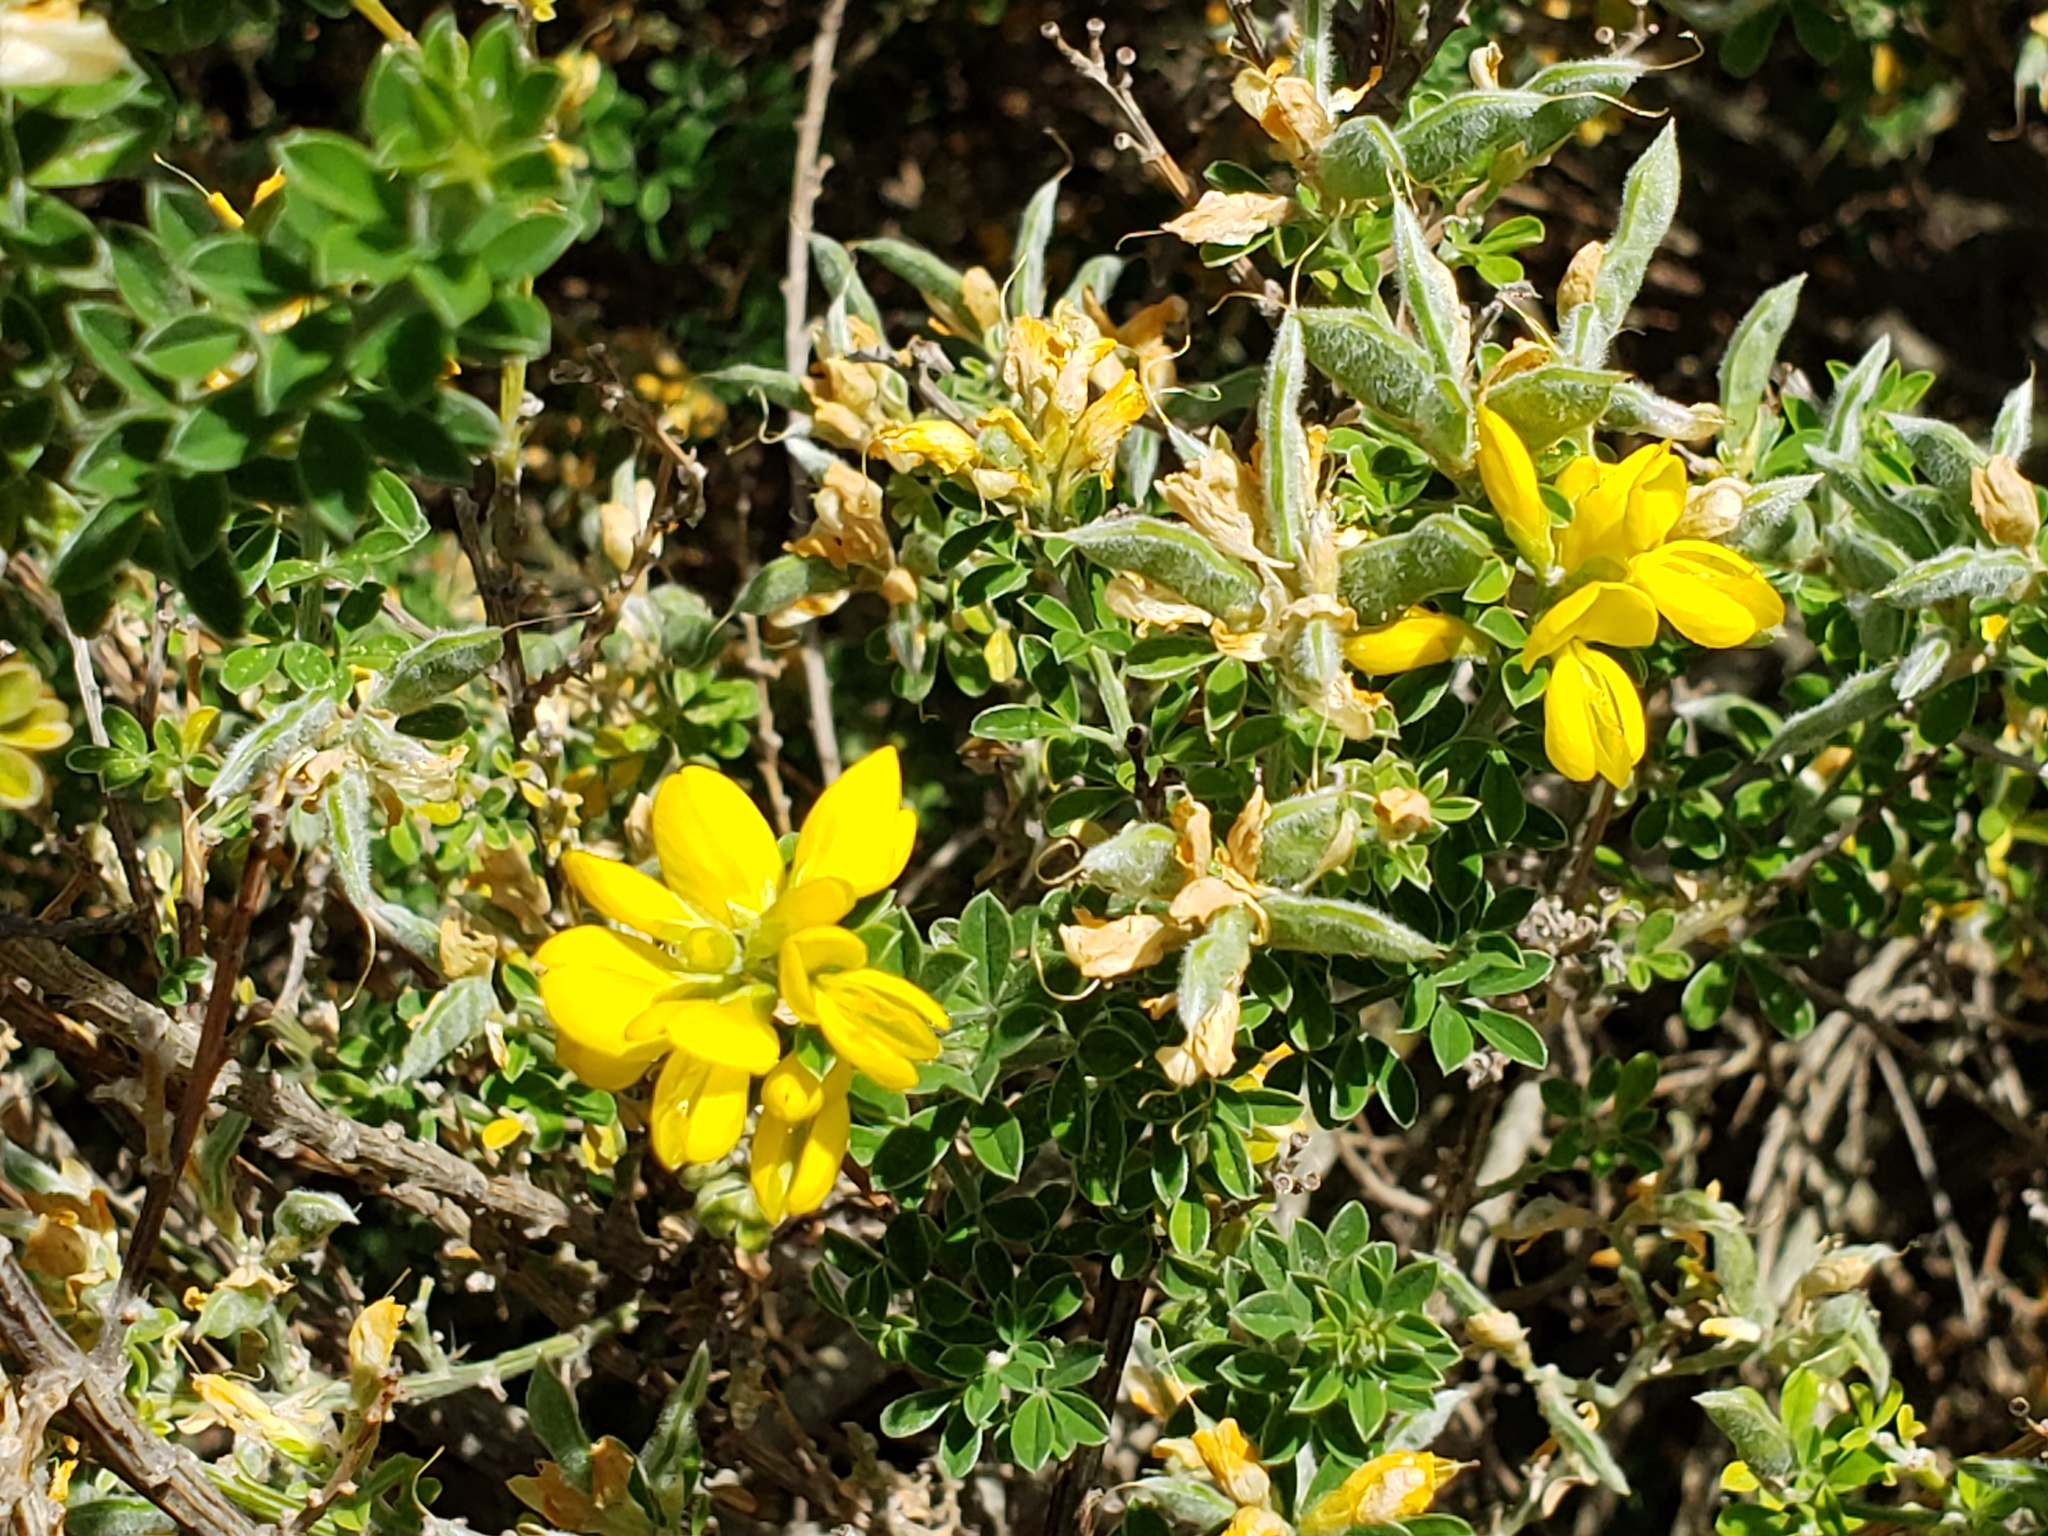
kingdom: Plantae
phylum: Tracheophyta
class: Magnoliopsida
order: Fabales
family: Fabaceae
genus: Genista
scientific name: Genista monspessulana
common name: Montpellier broom
